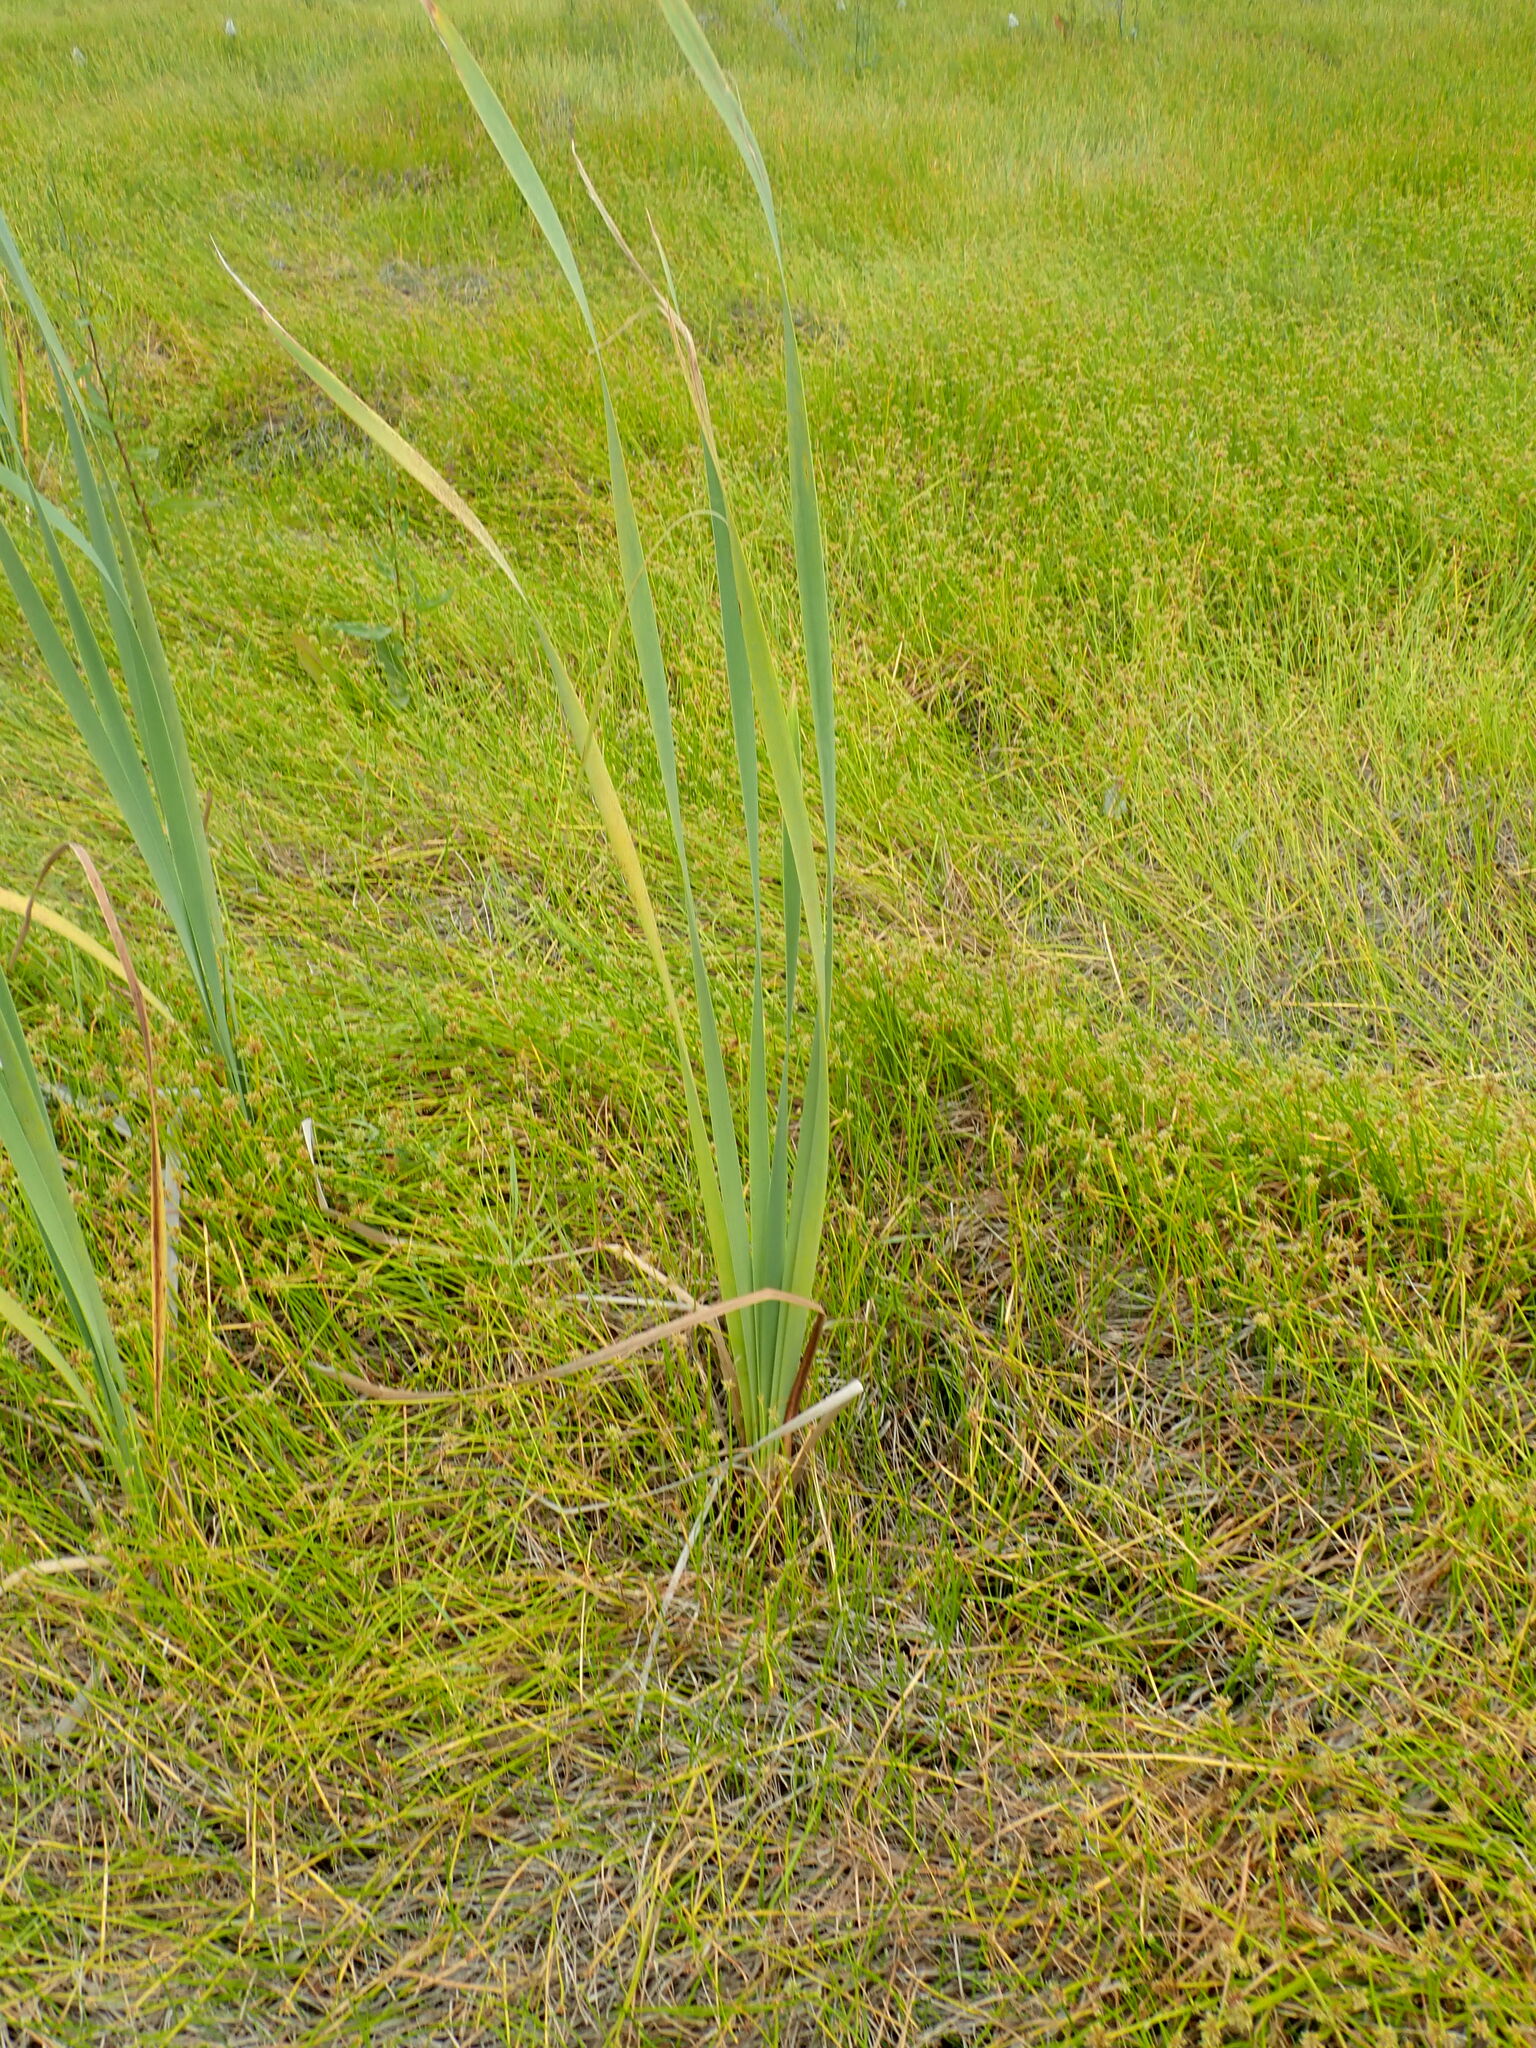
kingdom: Plantae
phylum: Tracheophyta
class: Liliopsida
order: Poales
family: Typhaceae
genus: Typha
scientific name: Typha orientalis
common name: Bullrush
